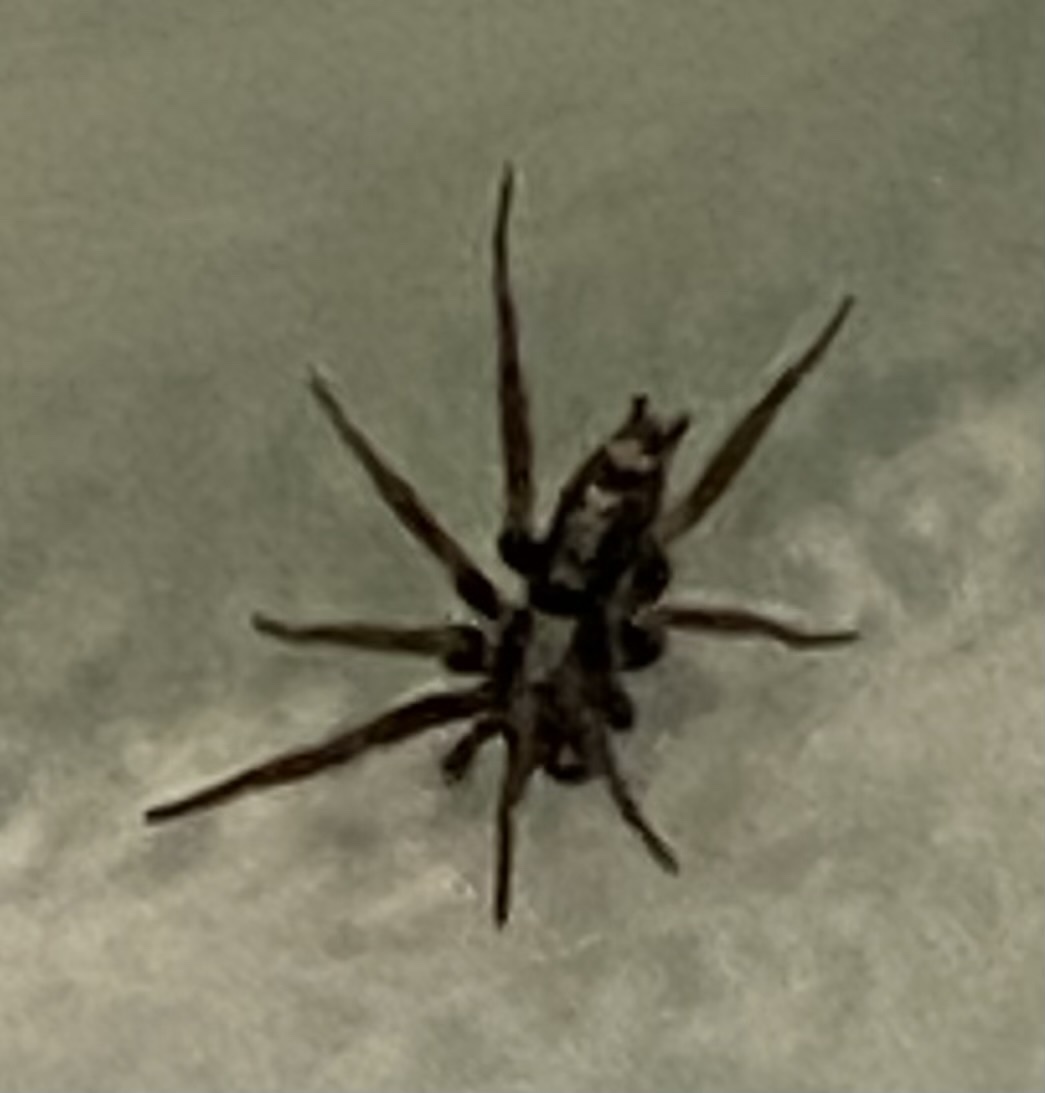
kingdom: Animalia
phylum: Arthropoda
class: Arachnida
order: Araneae
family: Gnaphosidae
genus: Herpyllus
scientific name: Herpyllus ecclesiasticus
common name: Eastern parson spider
